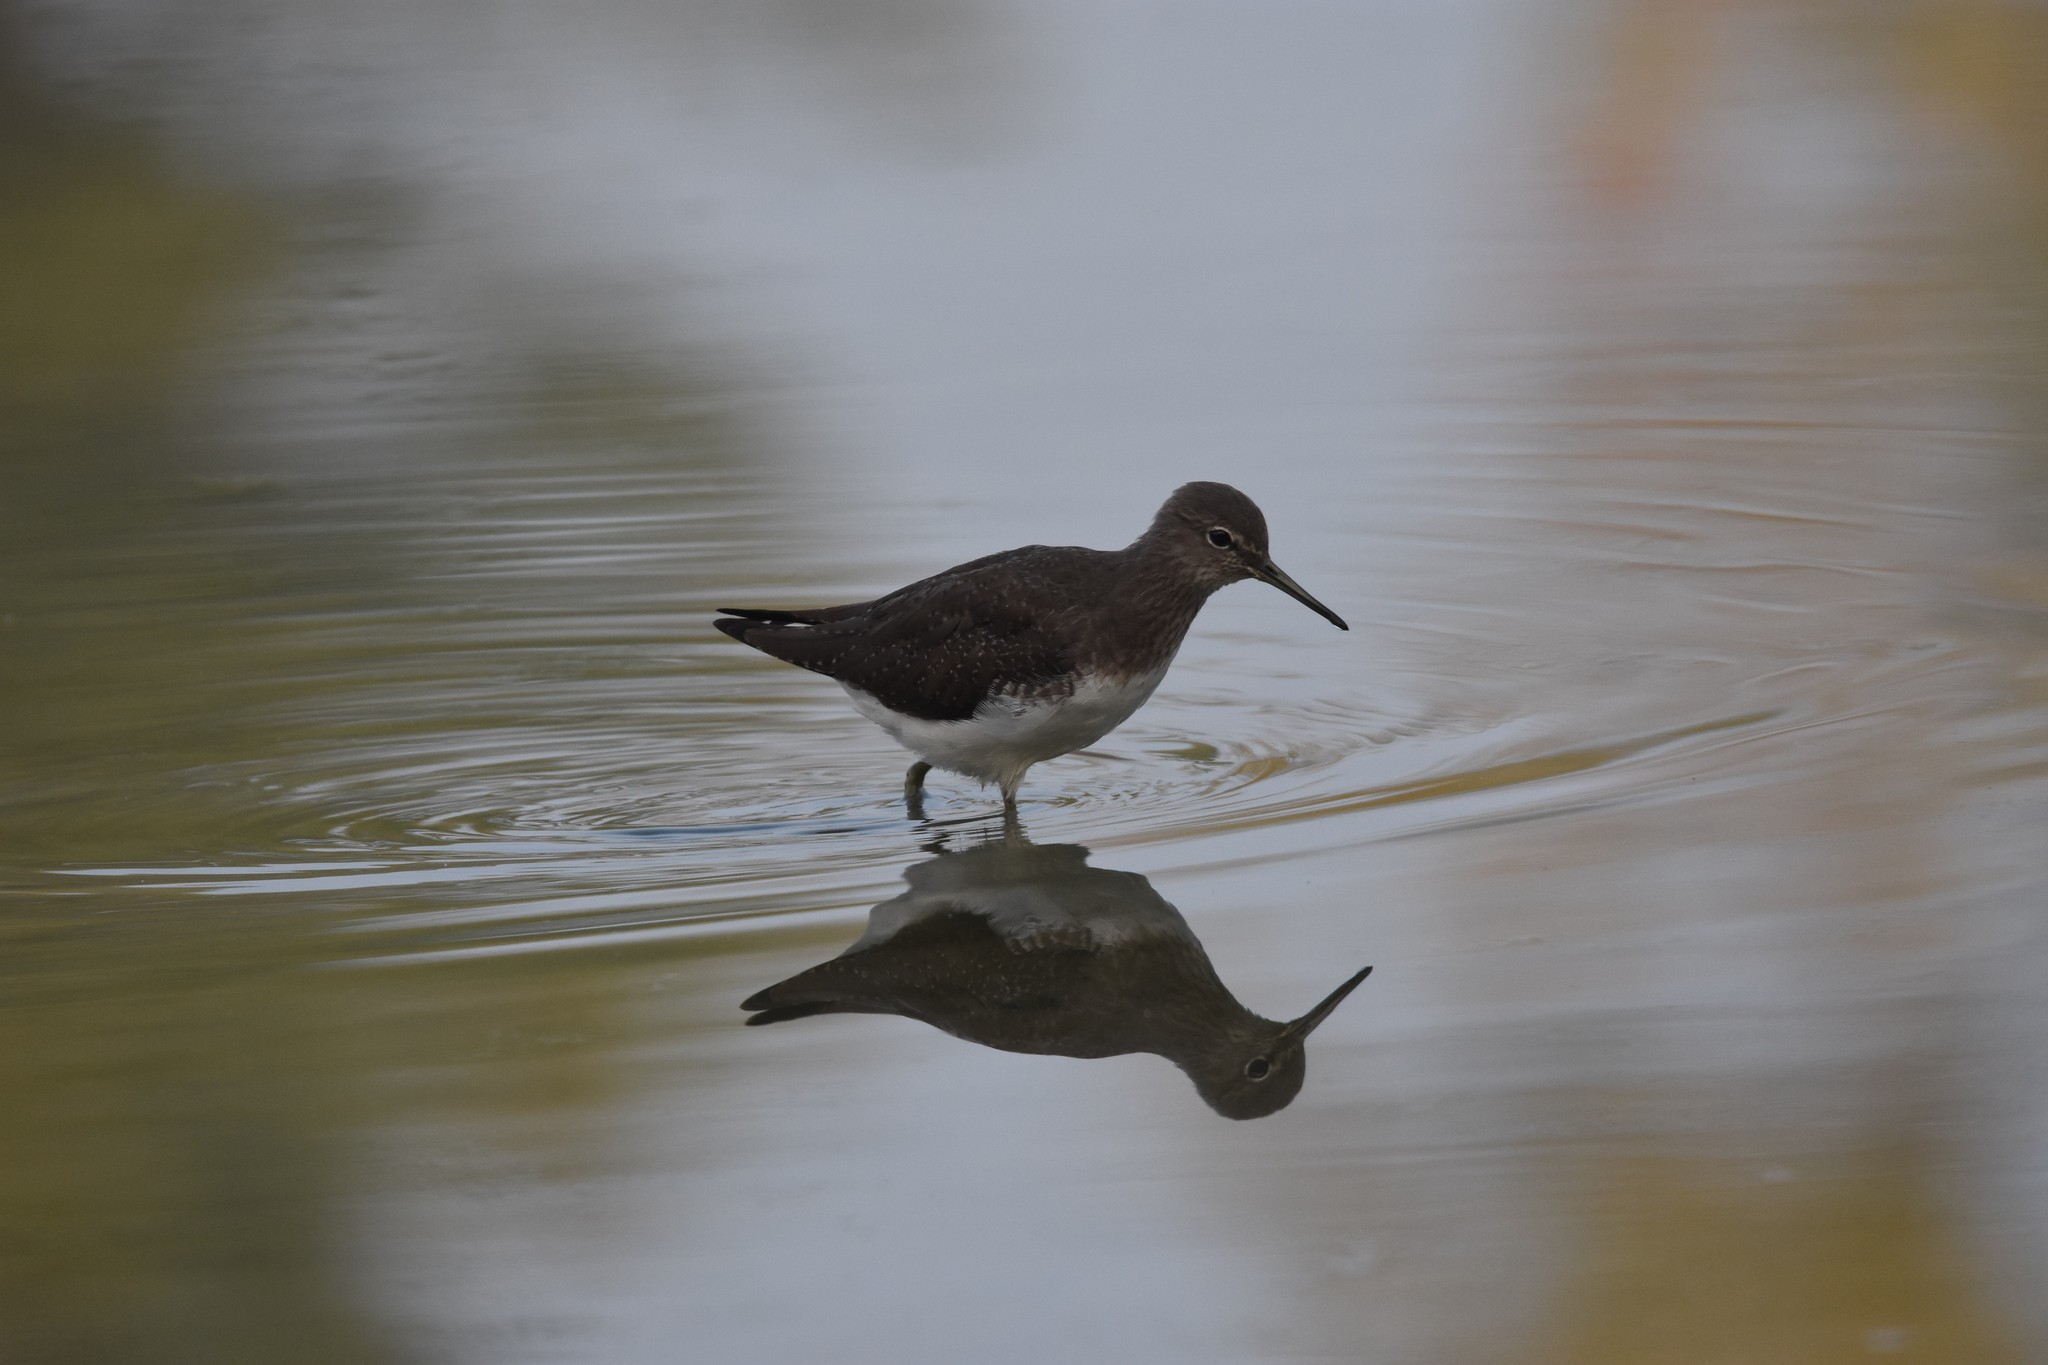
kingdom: Animalia
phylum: Chordata
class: Aves
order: Charadriiformes
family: Scolopacidae
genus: Tringa
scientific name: Tringa ochropus
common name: Green sandpiper
